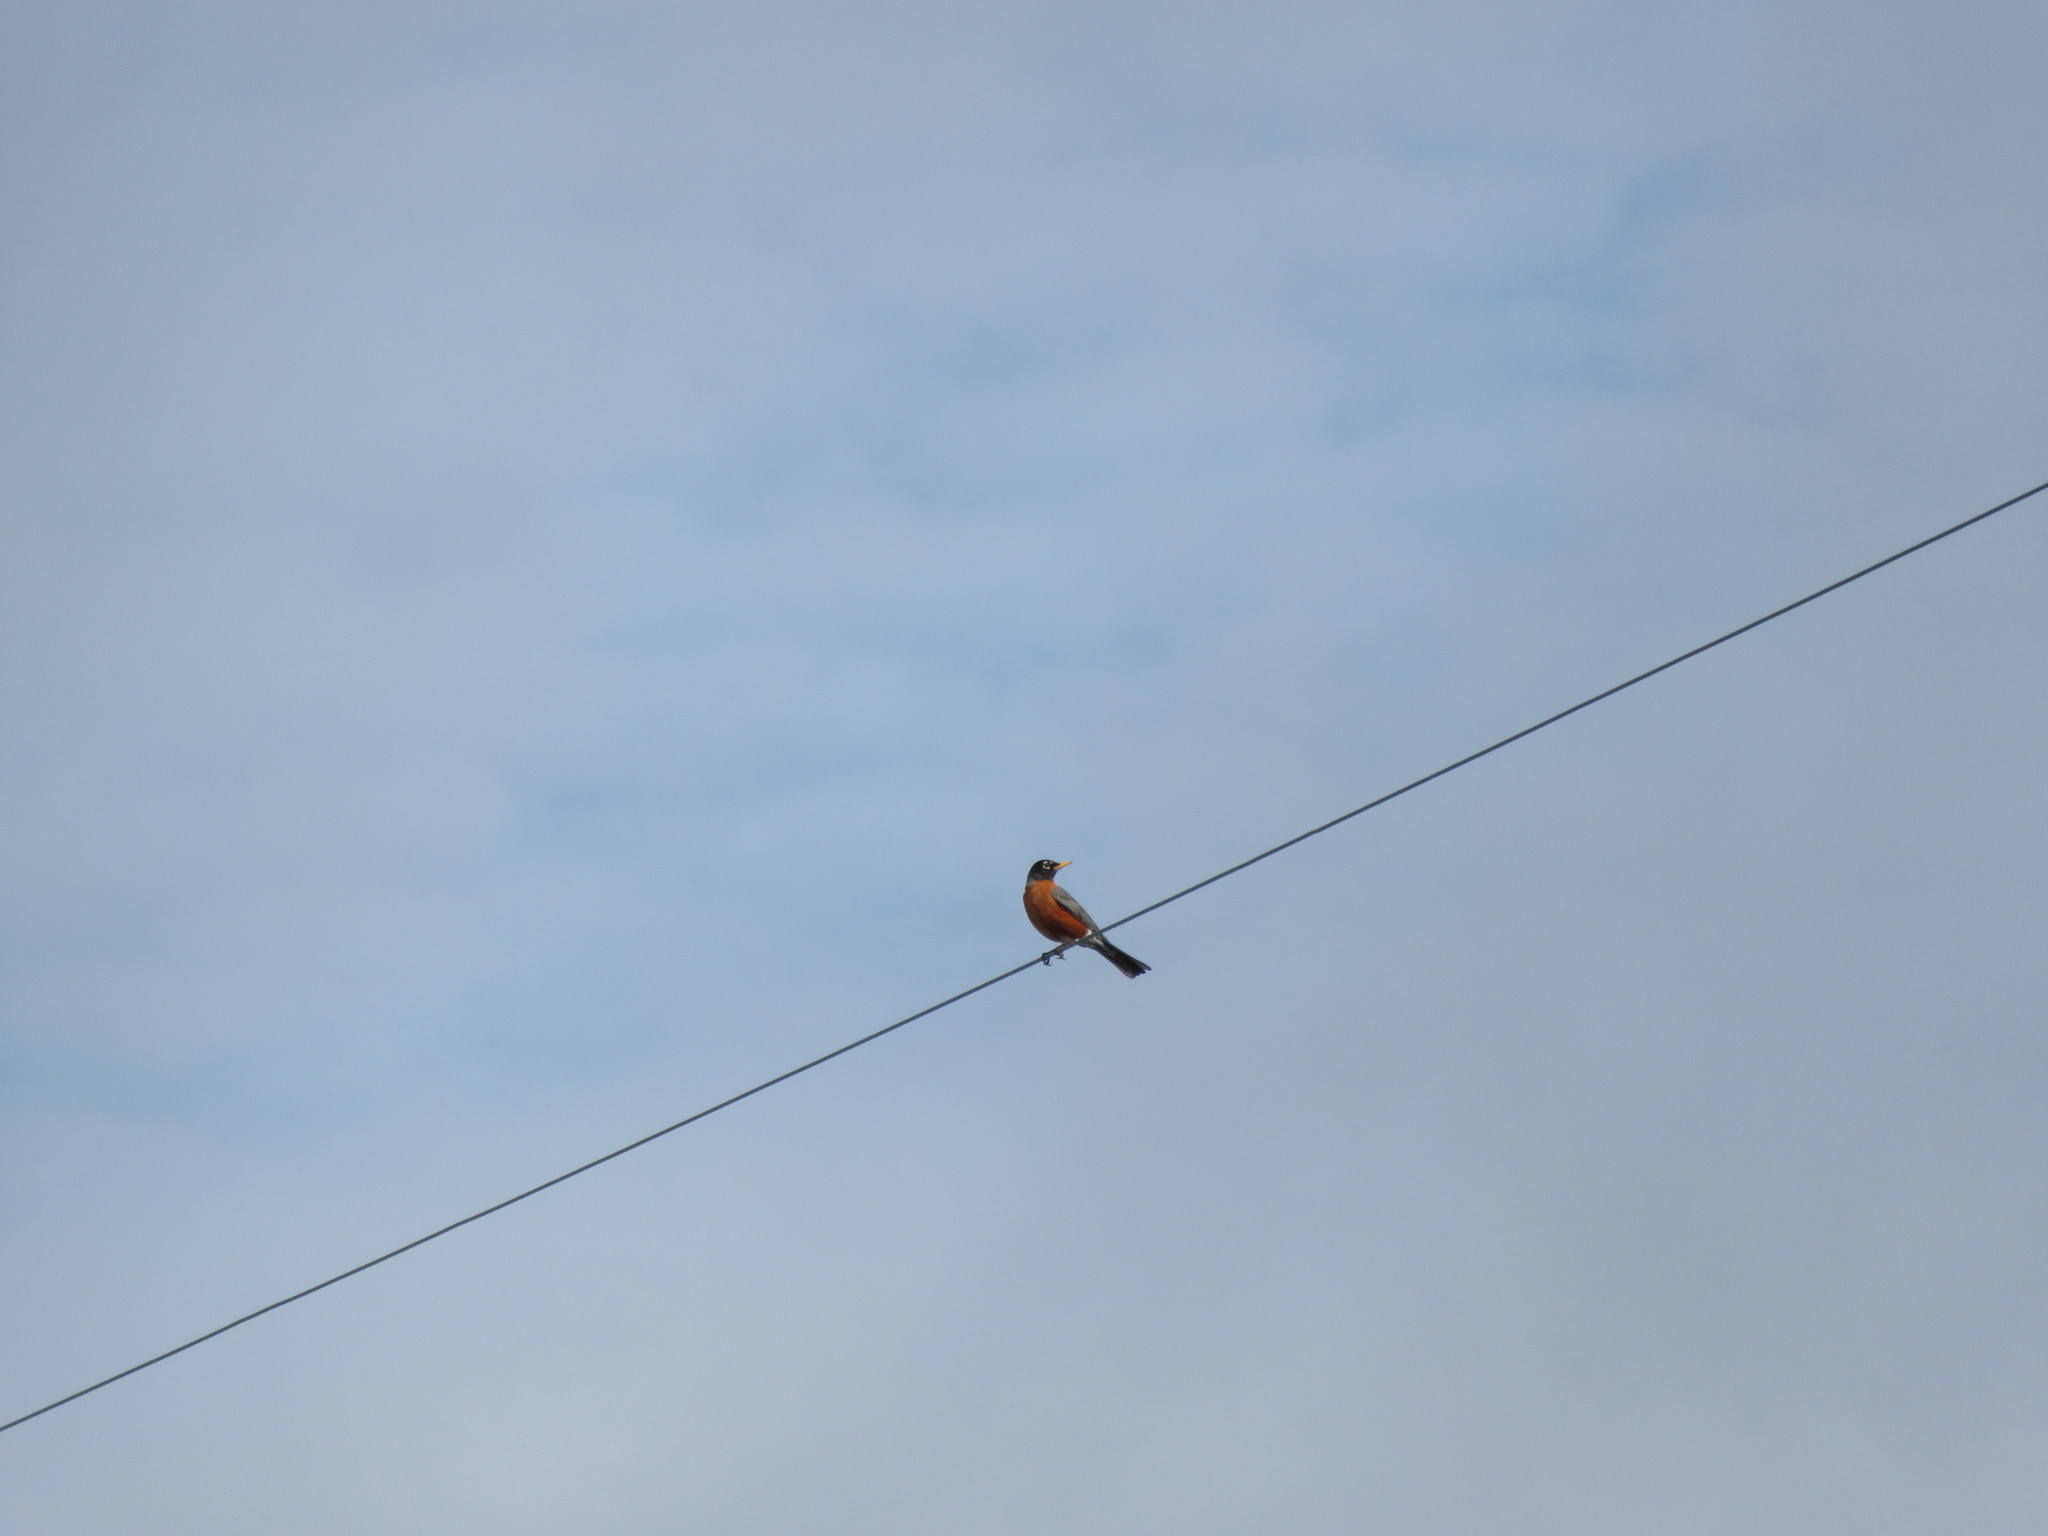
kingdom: Animalia
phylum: Chordata
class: Aves
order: Passeriformes
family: Turdidae
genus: Turdus
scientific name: Turdus migratorius
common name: American robin
